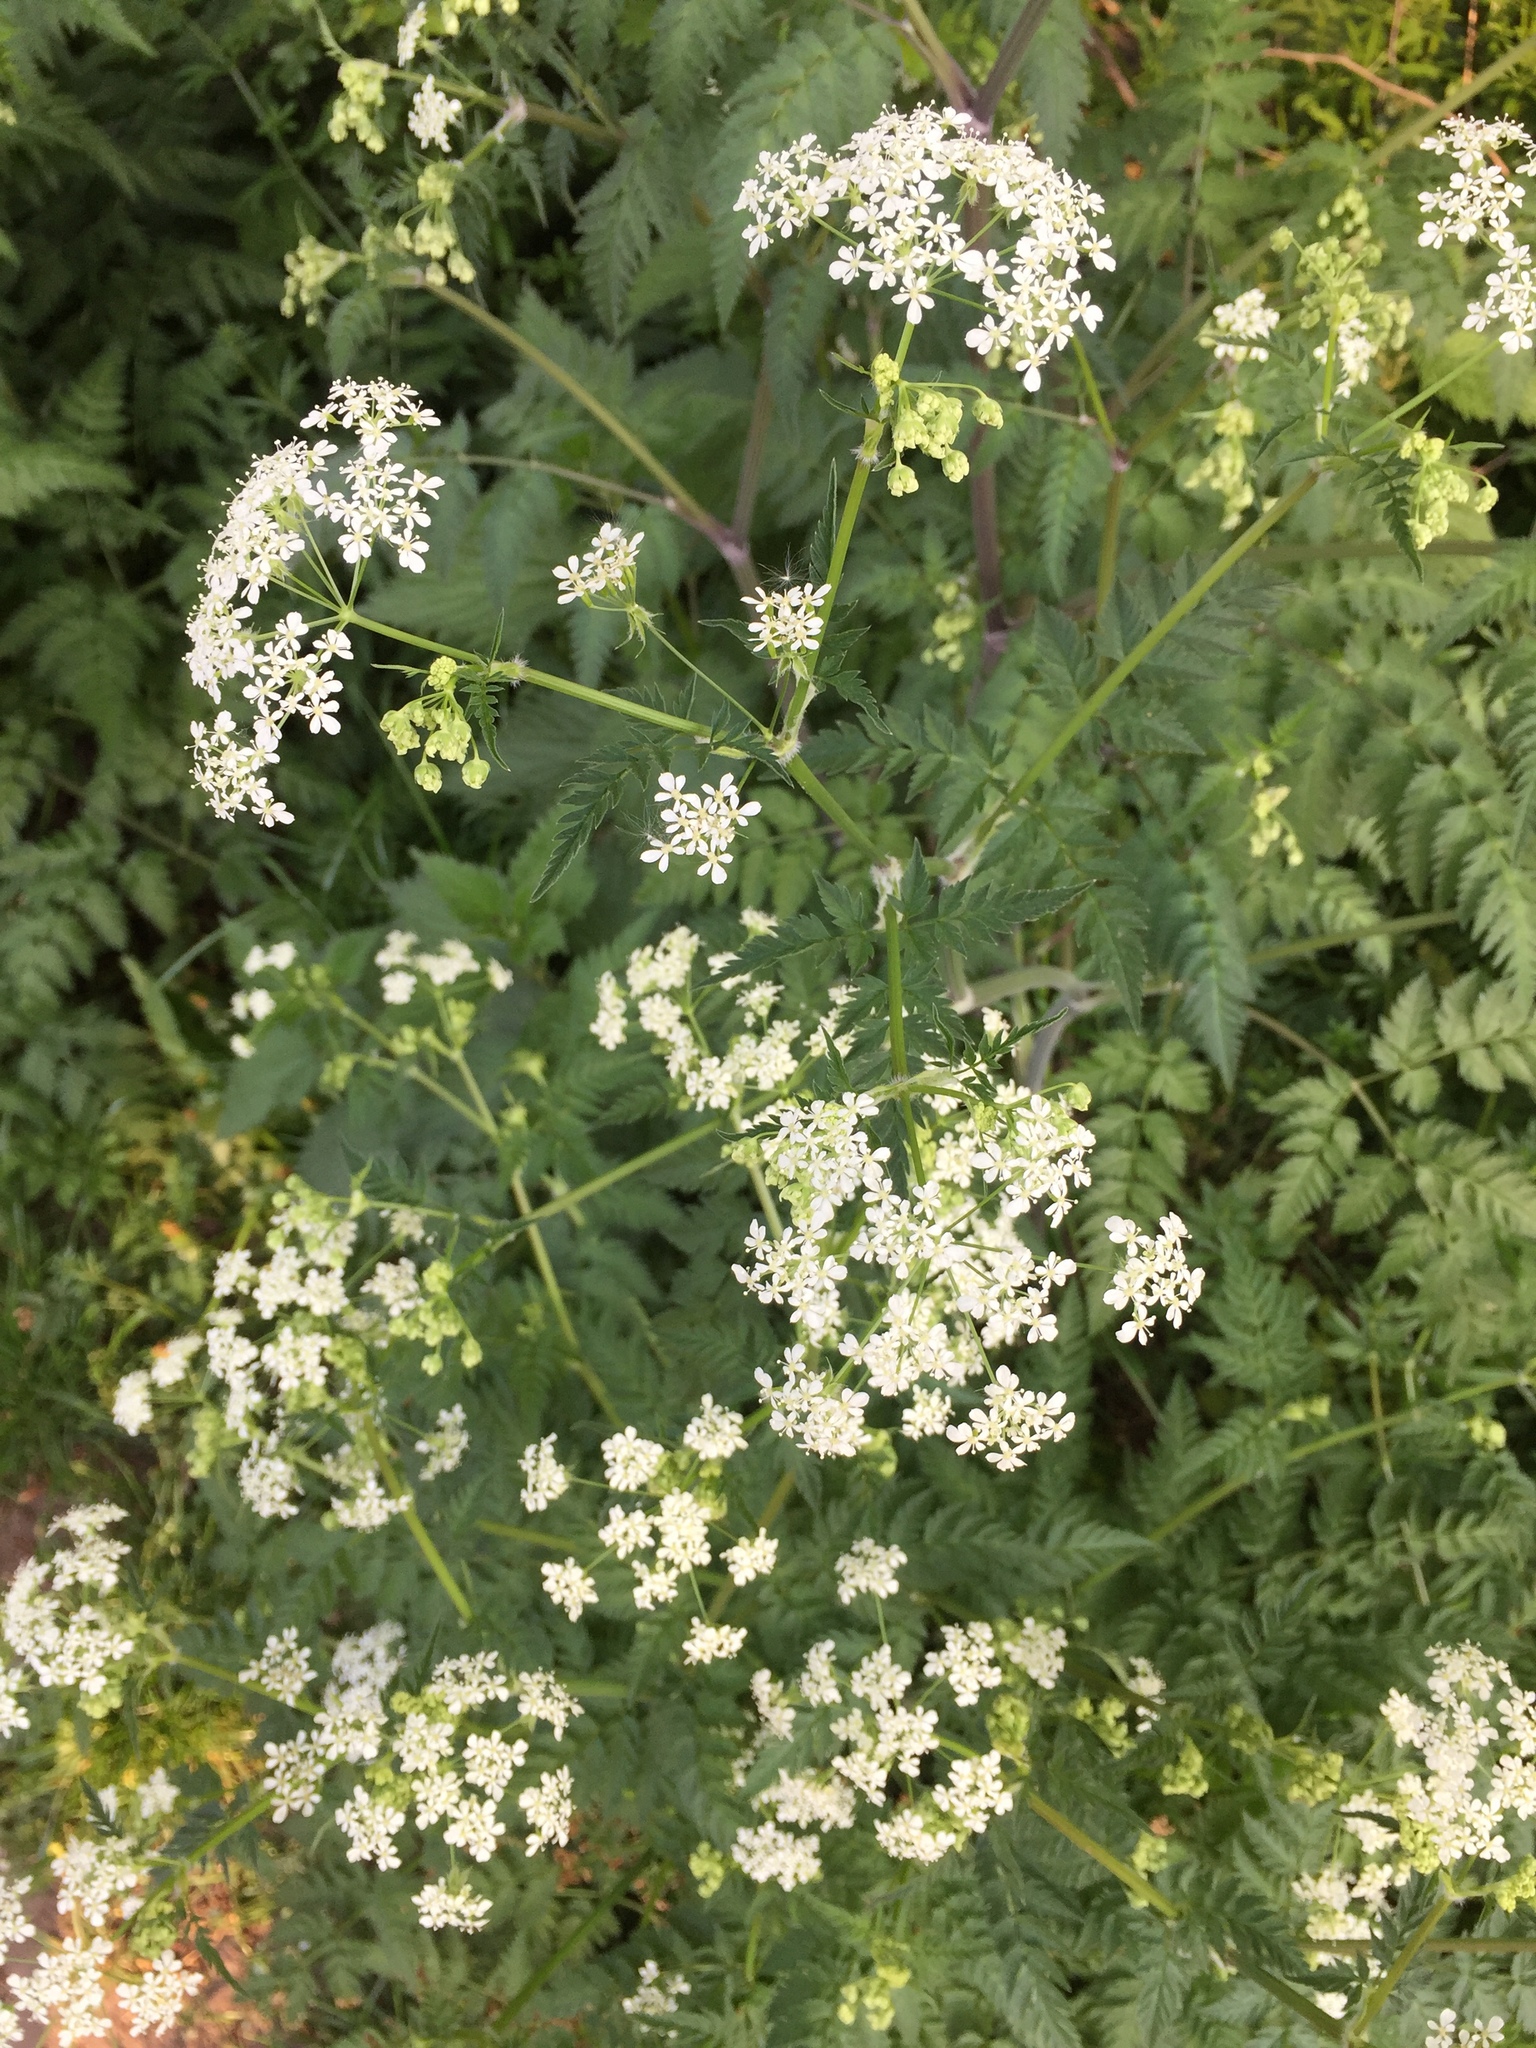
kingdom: Plantae
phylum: Tracheophyta
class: Magnoliopsida
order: Apiales
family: Apiaceae
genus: Anthriscus
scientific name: Anthriscus sylvestris
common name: Cow parsley
